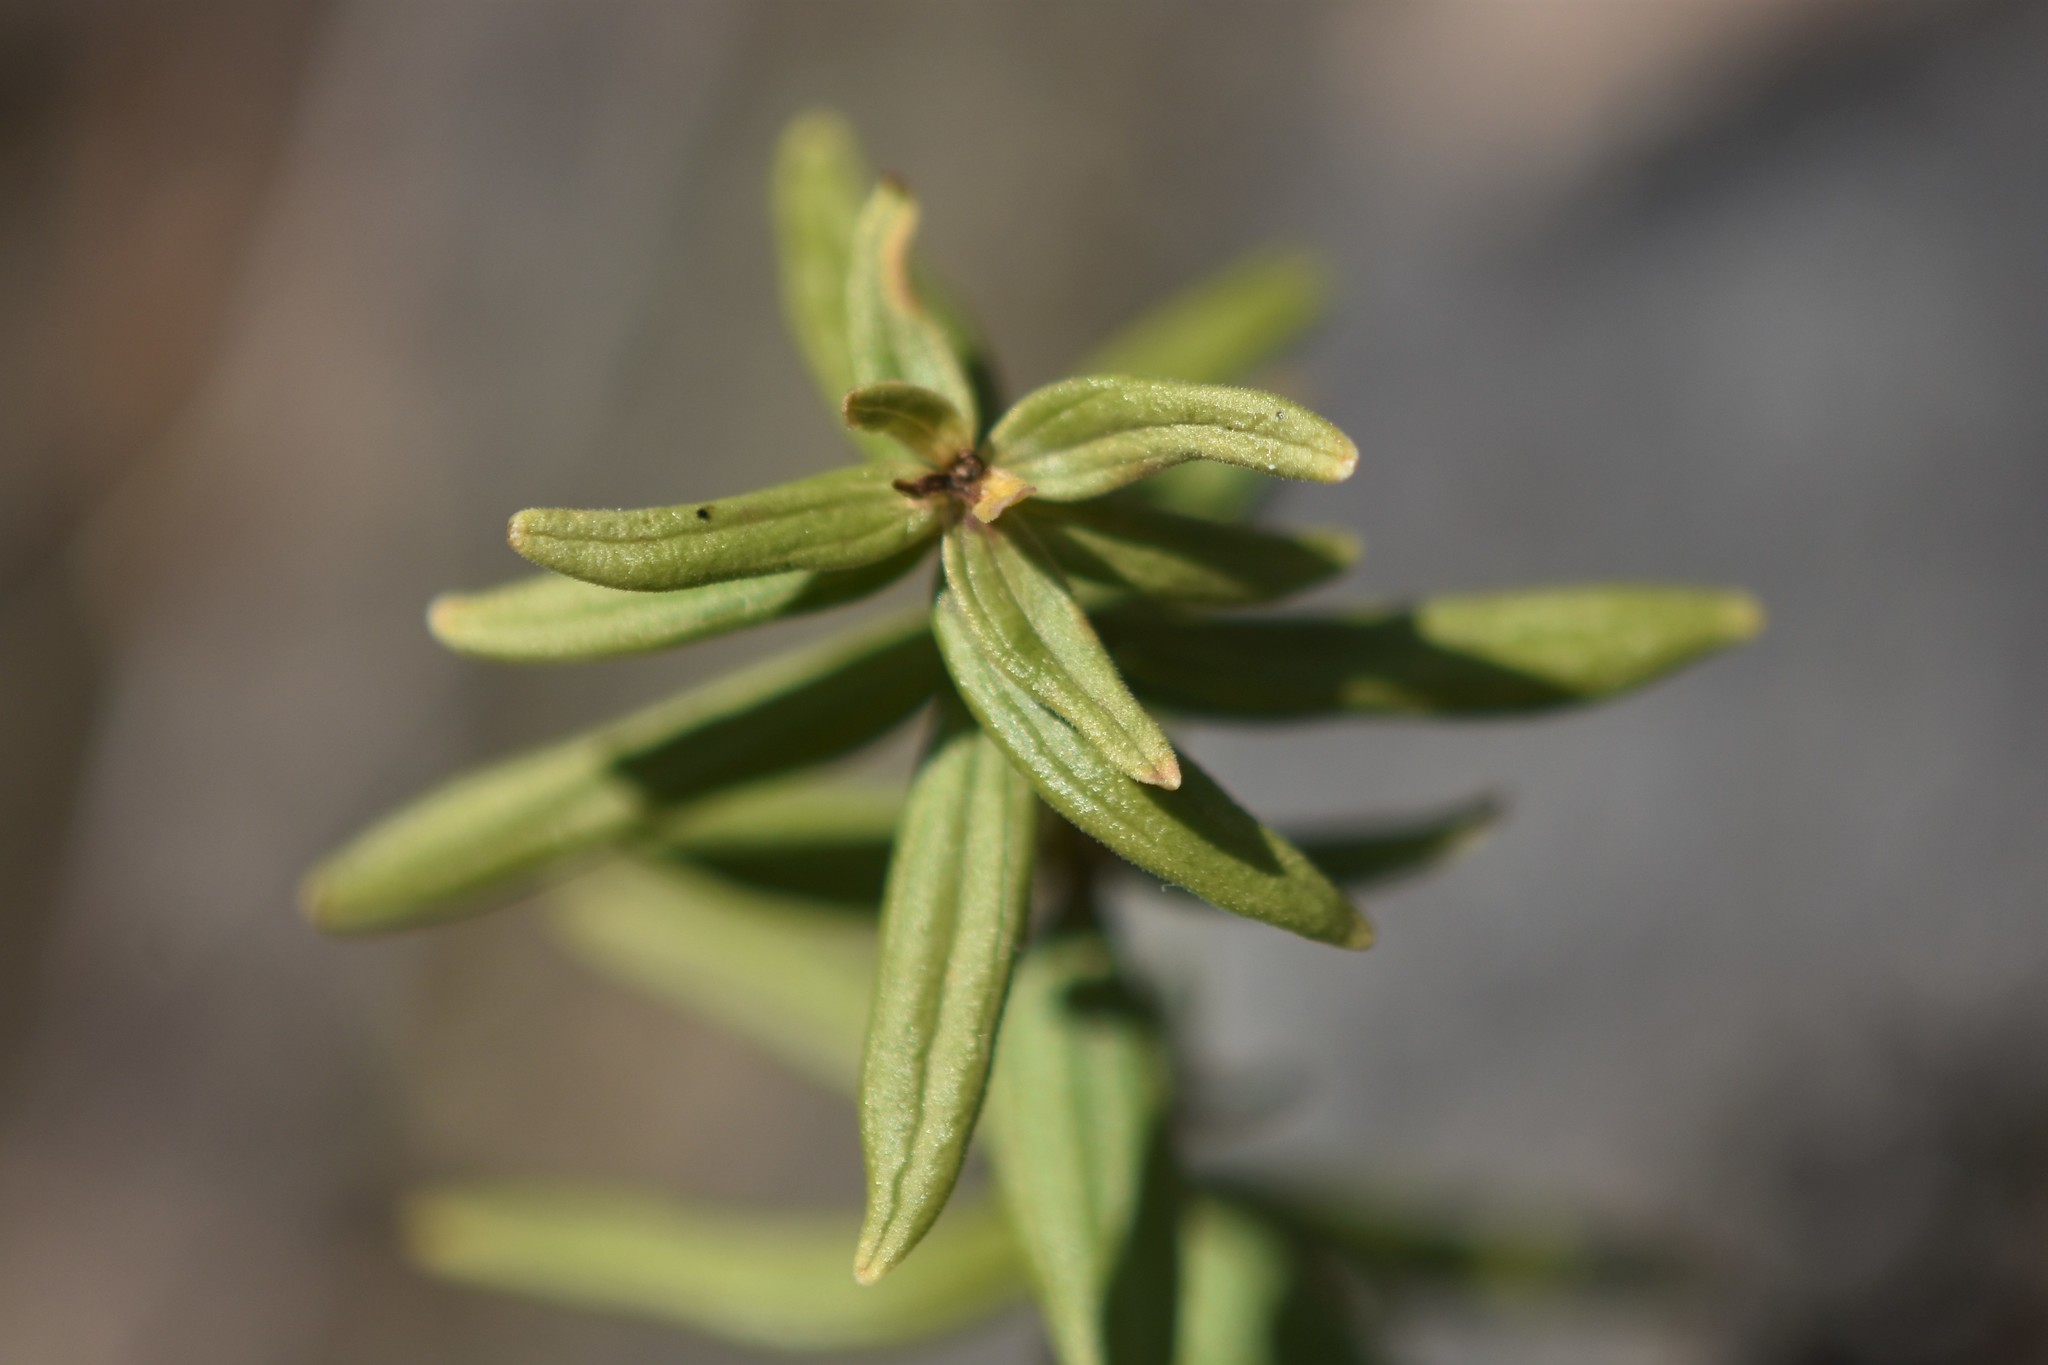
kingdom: Plantae
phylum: Tracheophyta
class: Magnoliopsida
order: Gentianales
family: Rubiaceae
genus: Galium
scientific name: Galium boreale
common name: Northern bedstraw
